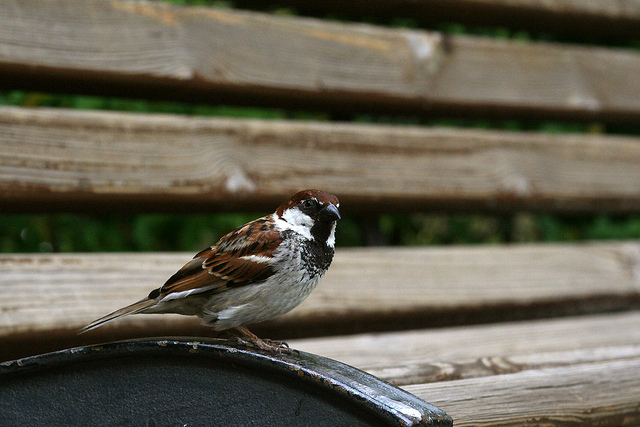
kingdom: Animalia
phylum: Chordata
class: Aves
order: Passeriformes
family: Passeridae
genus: Passer
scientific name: Passer italiae
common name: Italian sparrow
